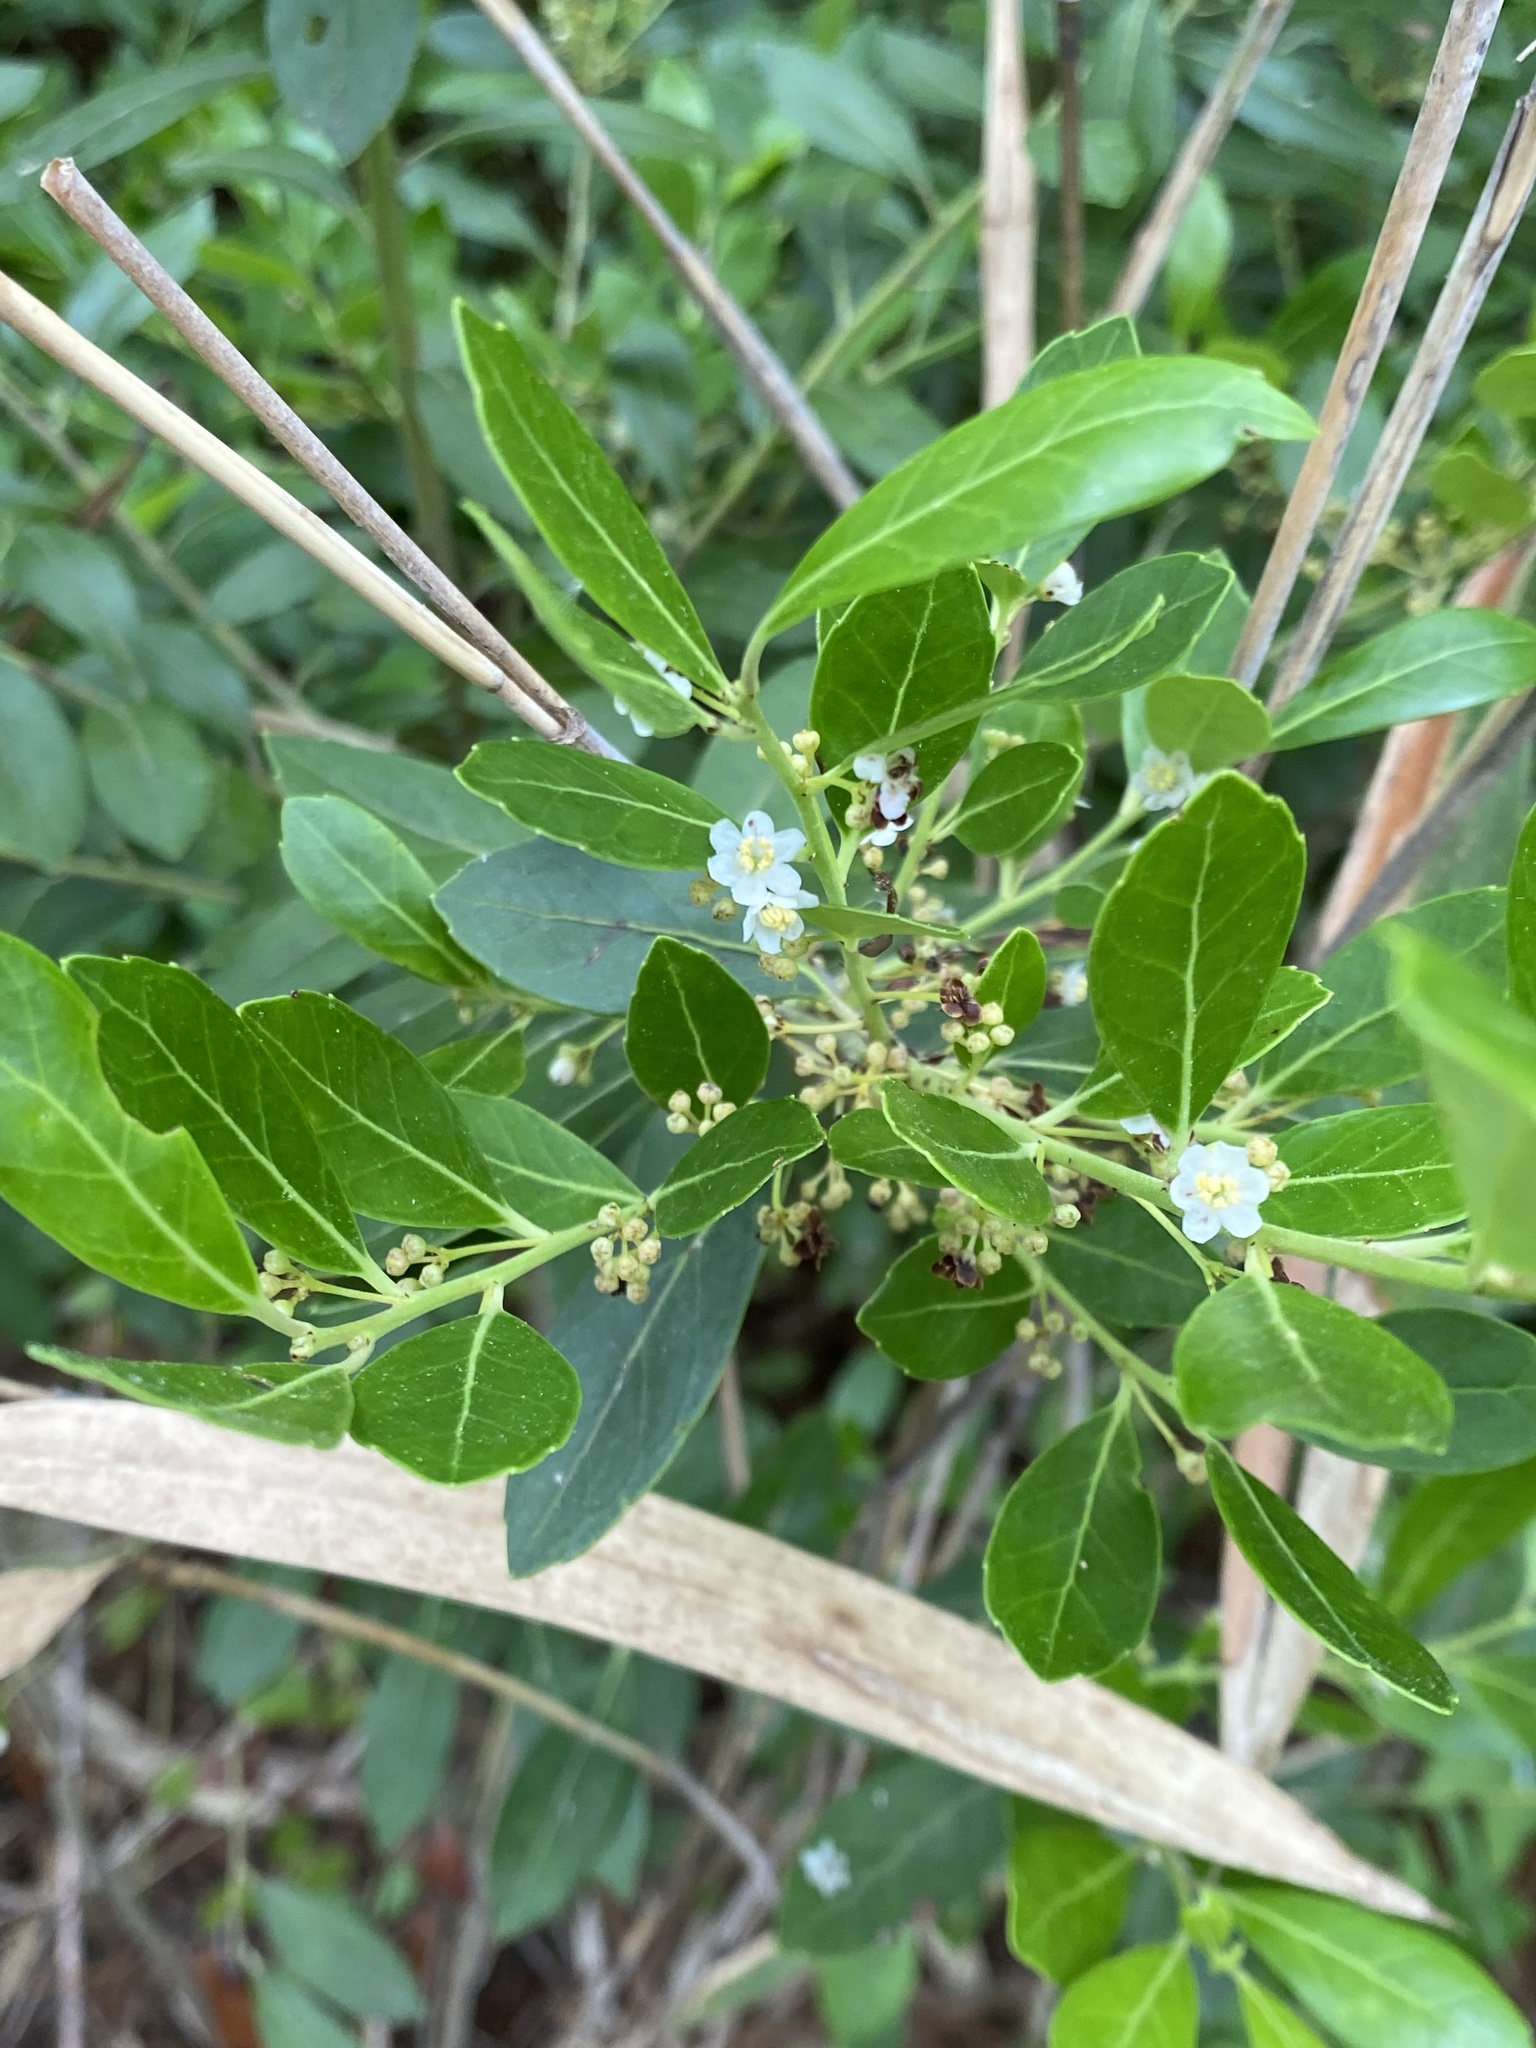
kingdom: Plantae
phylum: Tracheophyta
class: Magnoliopsida
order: Aquifoliales
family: Aquifoliaceae
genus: Ilex
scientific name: Ilex glabra
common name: Bitter gallberry
